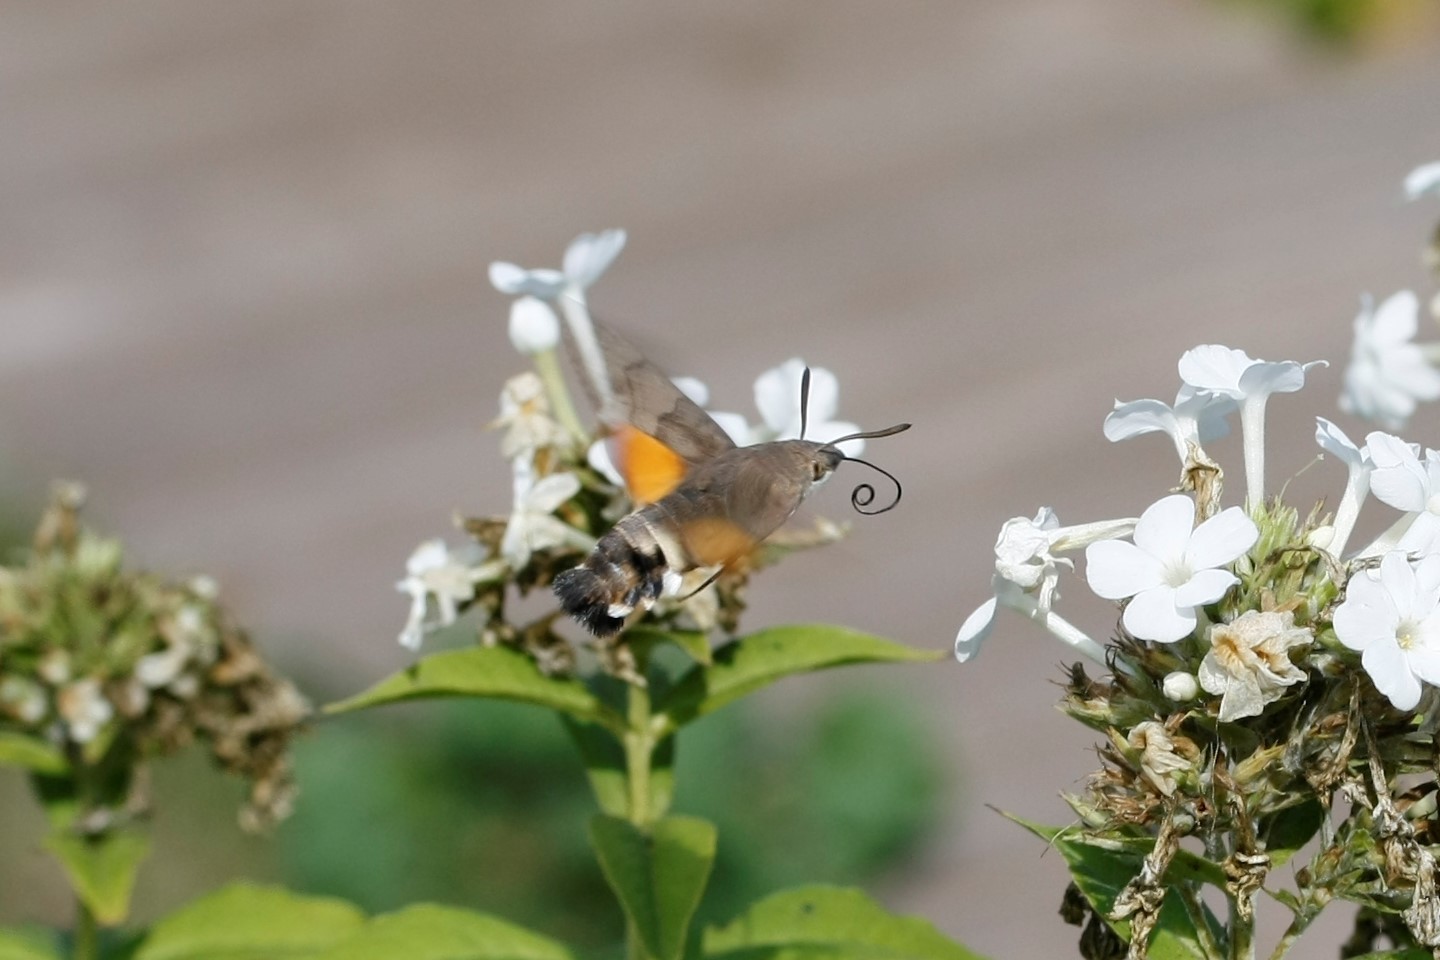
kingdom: Animalia
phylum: Arthropoda
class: Insecta
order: Lepidoptera
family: Sphingidae
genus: Macroglossum
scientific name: Macroglossum stellatarum
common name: Humming-bird hawk-moth
